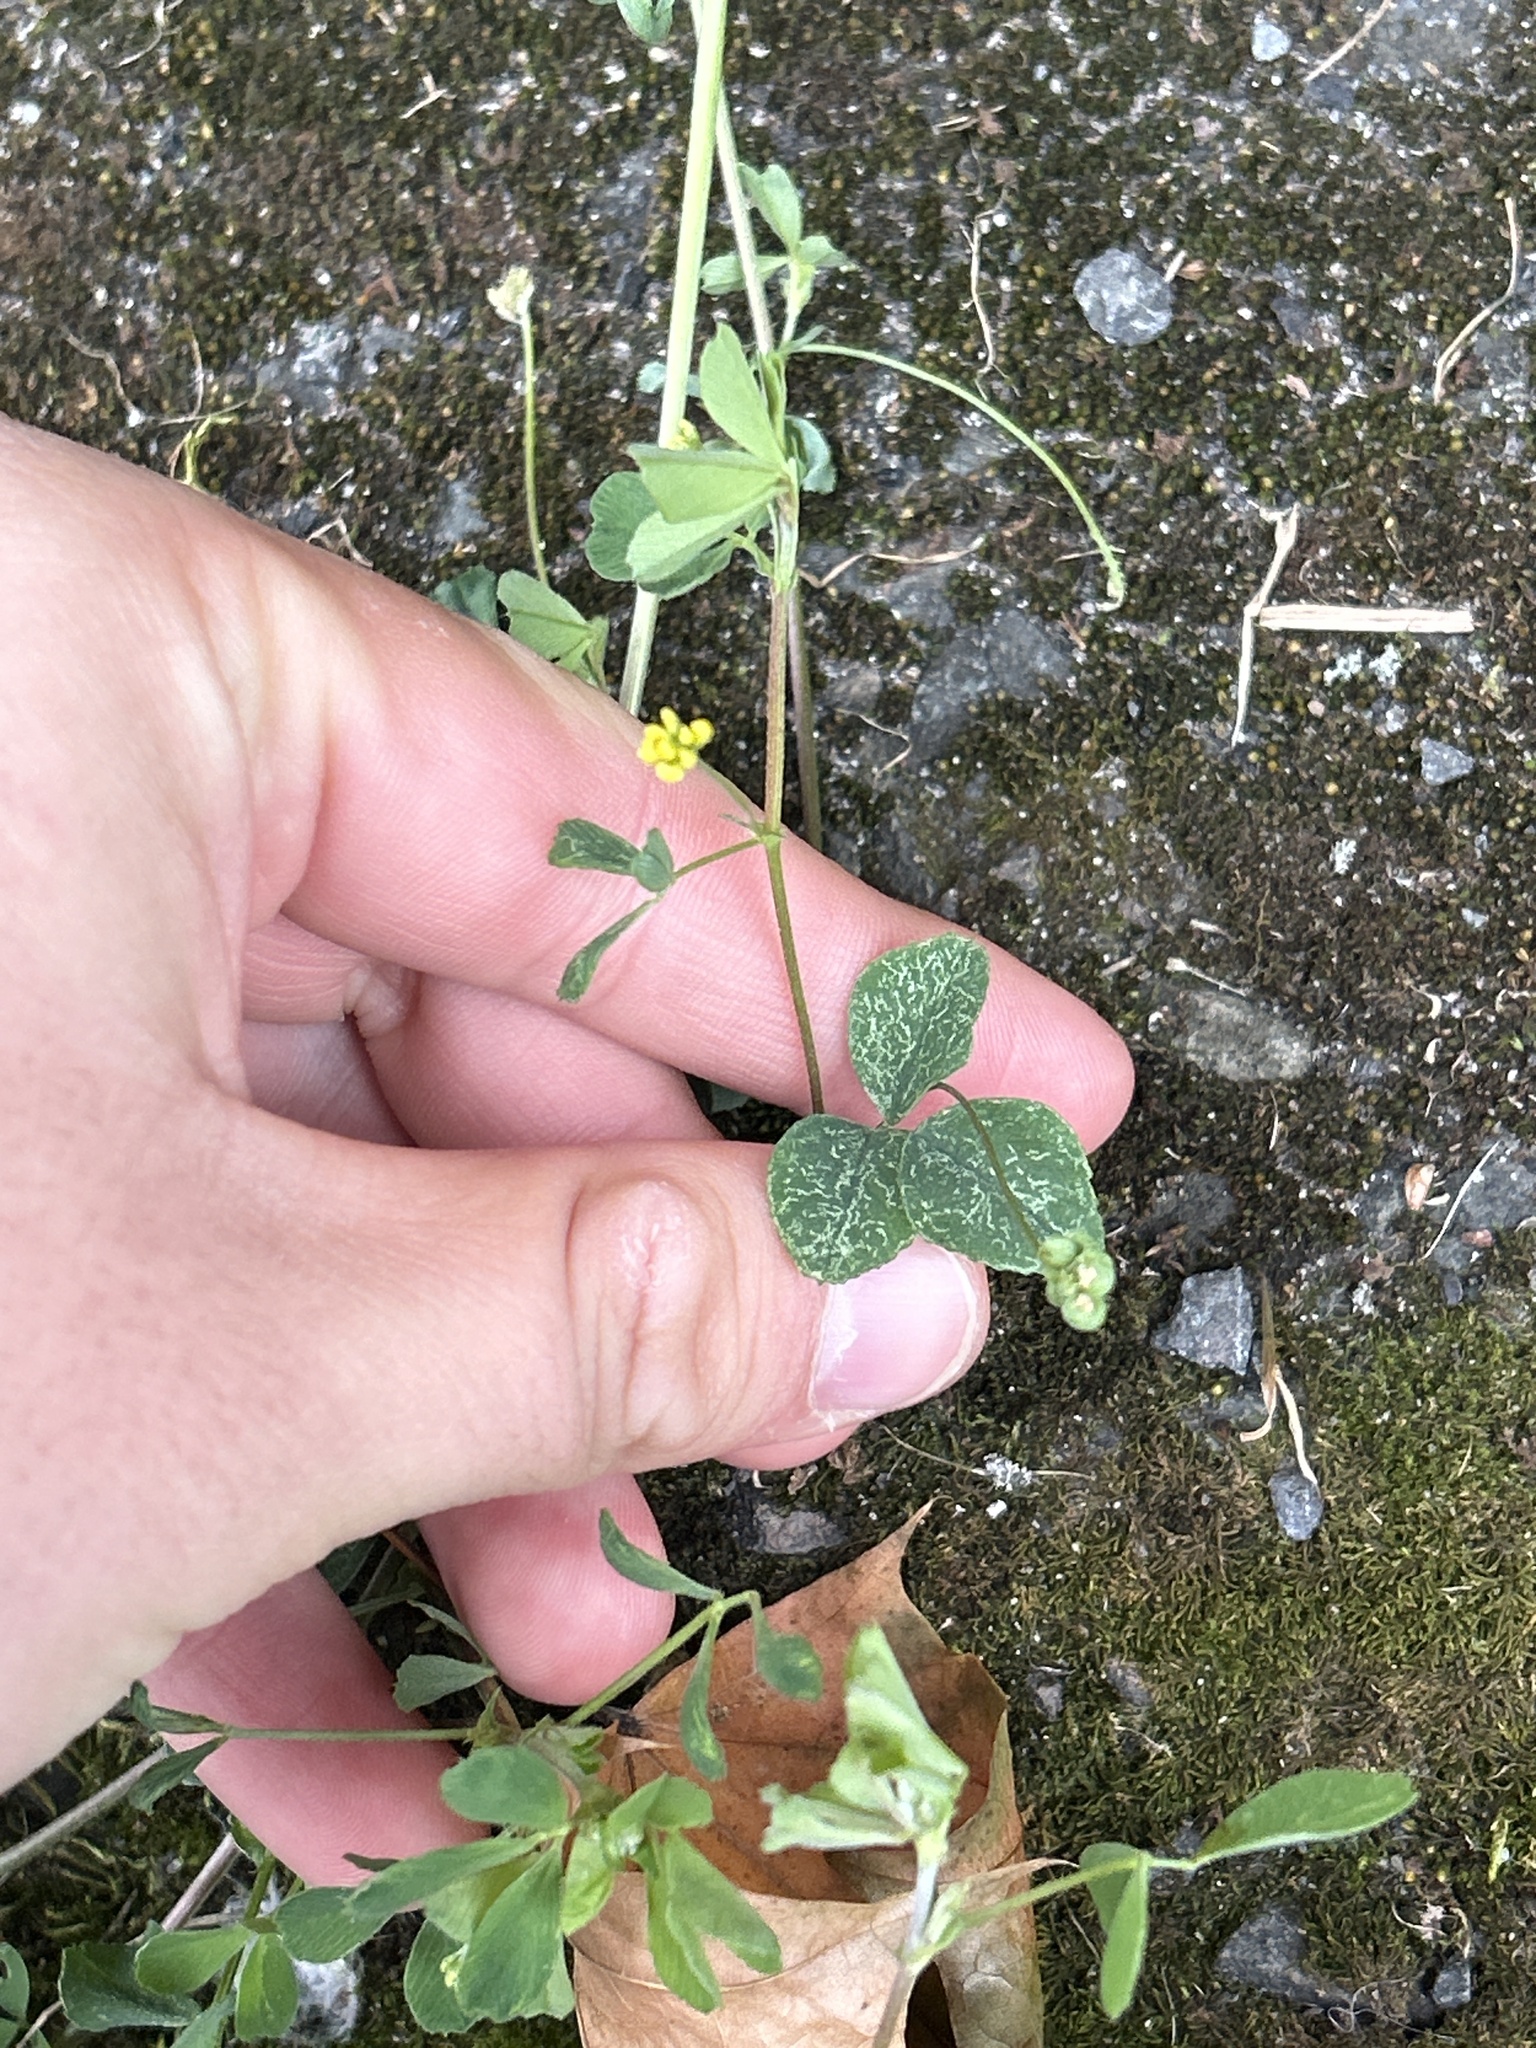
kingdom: Plantae
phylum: Tracheophyta
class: Magnoliopsida
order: Fabales
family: Fabaceae
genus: Medicago
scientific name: Medicago lupulina
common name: Black medick
